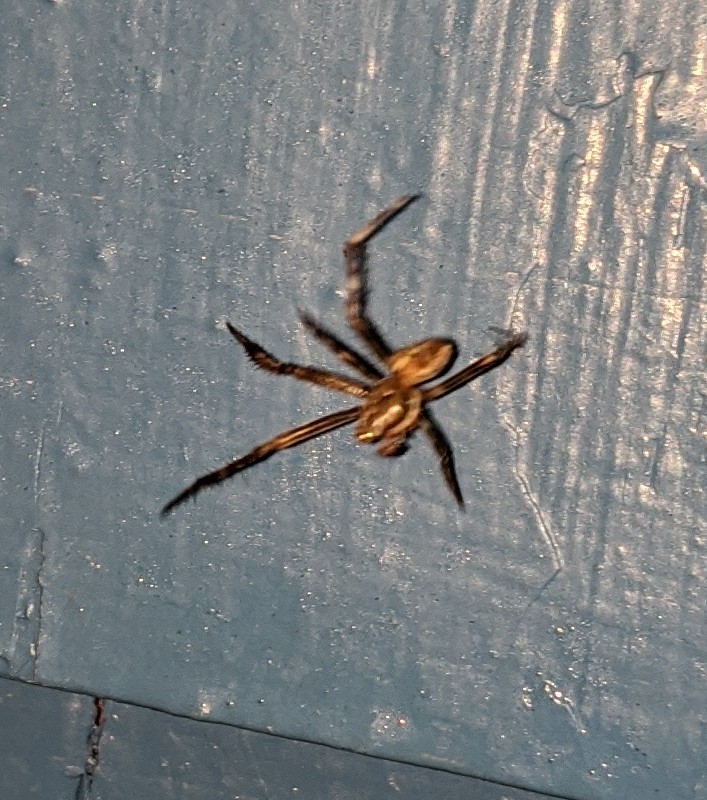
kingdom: Animalia
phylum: Arthropoda
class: Arachnida
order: Araneae
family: Araneidae
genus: Araneus
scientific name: Araneus diadematus
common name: Cross orbweaver
